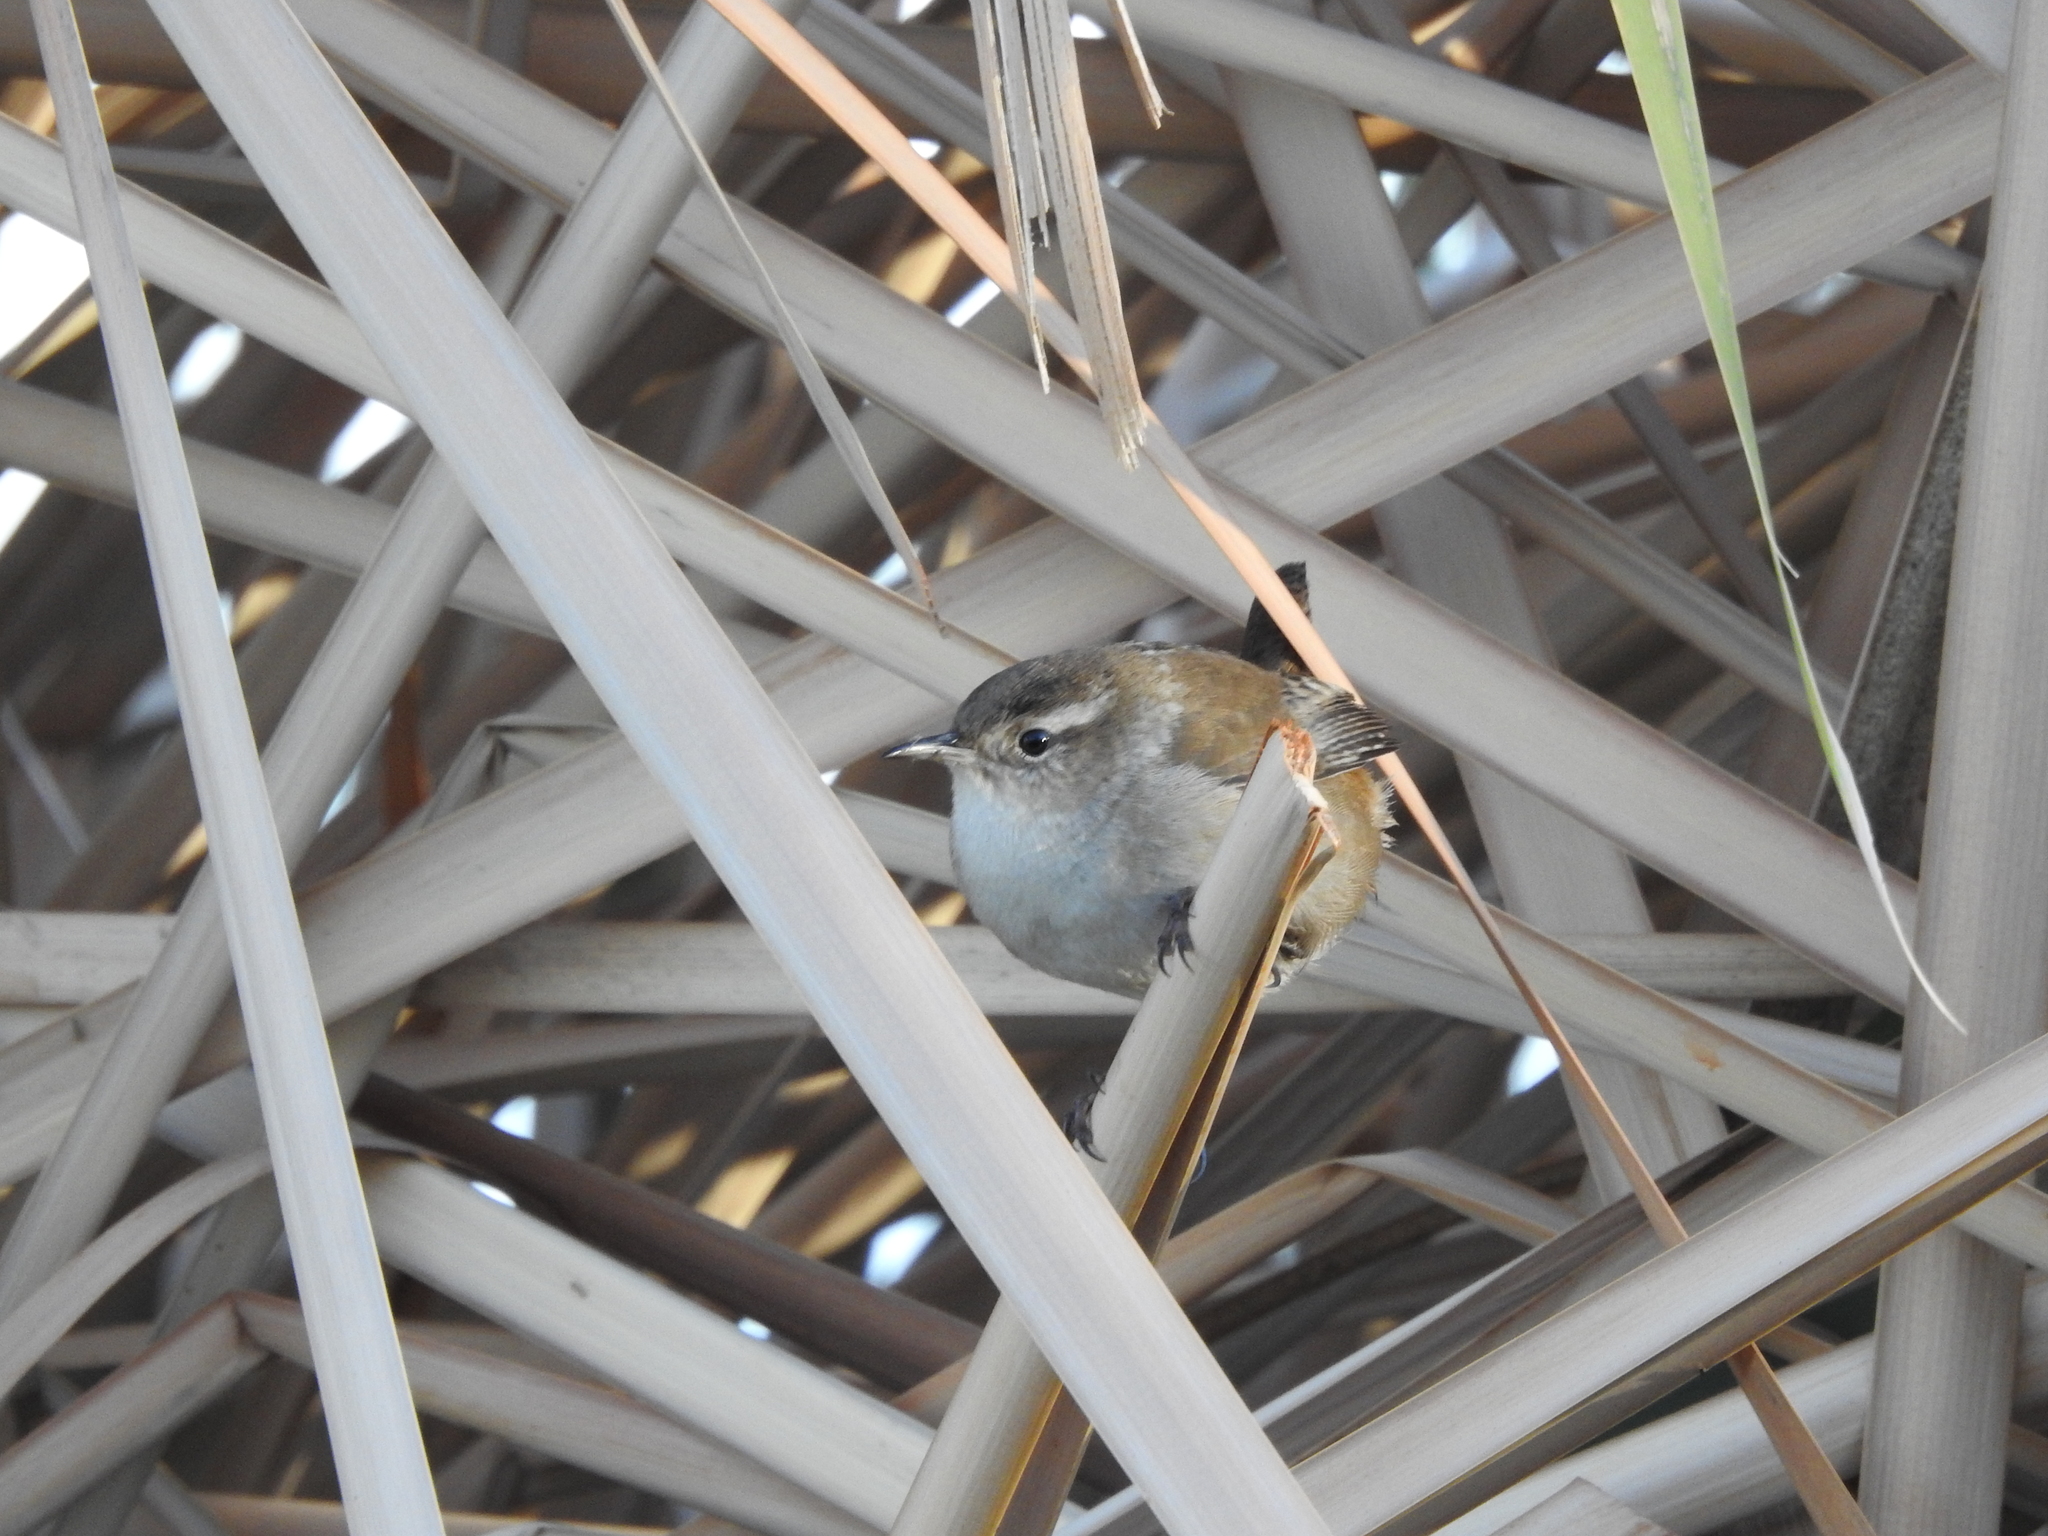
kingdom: Animalia
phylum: Chordata
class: Aves
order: Passeriformes
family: Troglodytidae
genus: Cistothorus
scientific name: Cistothorus palustris
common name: Marsh wren
